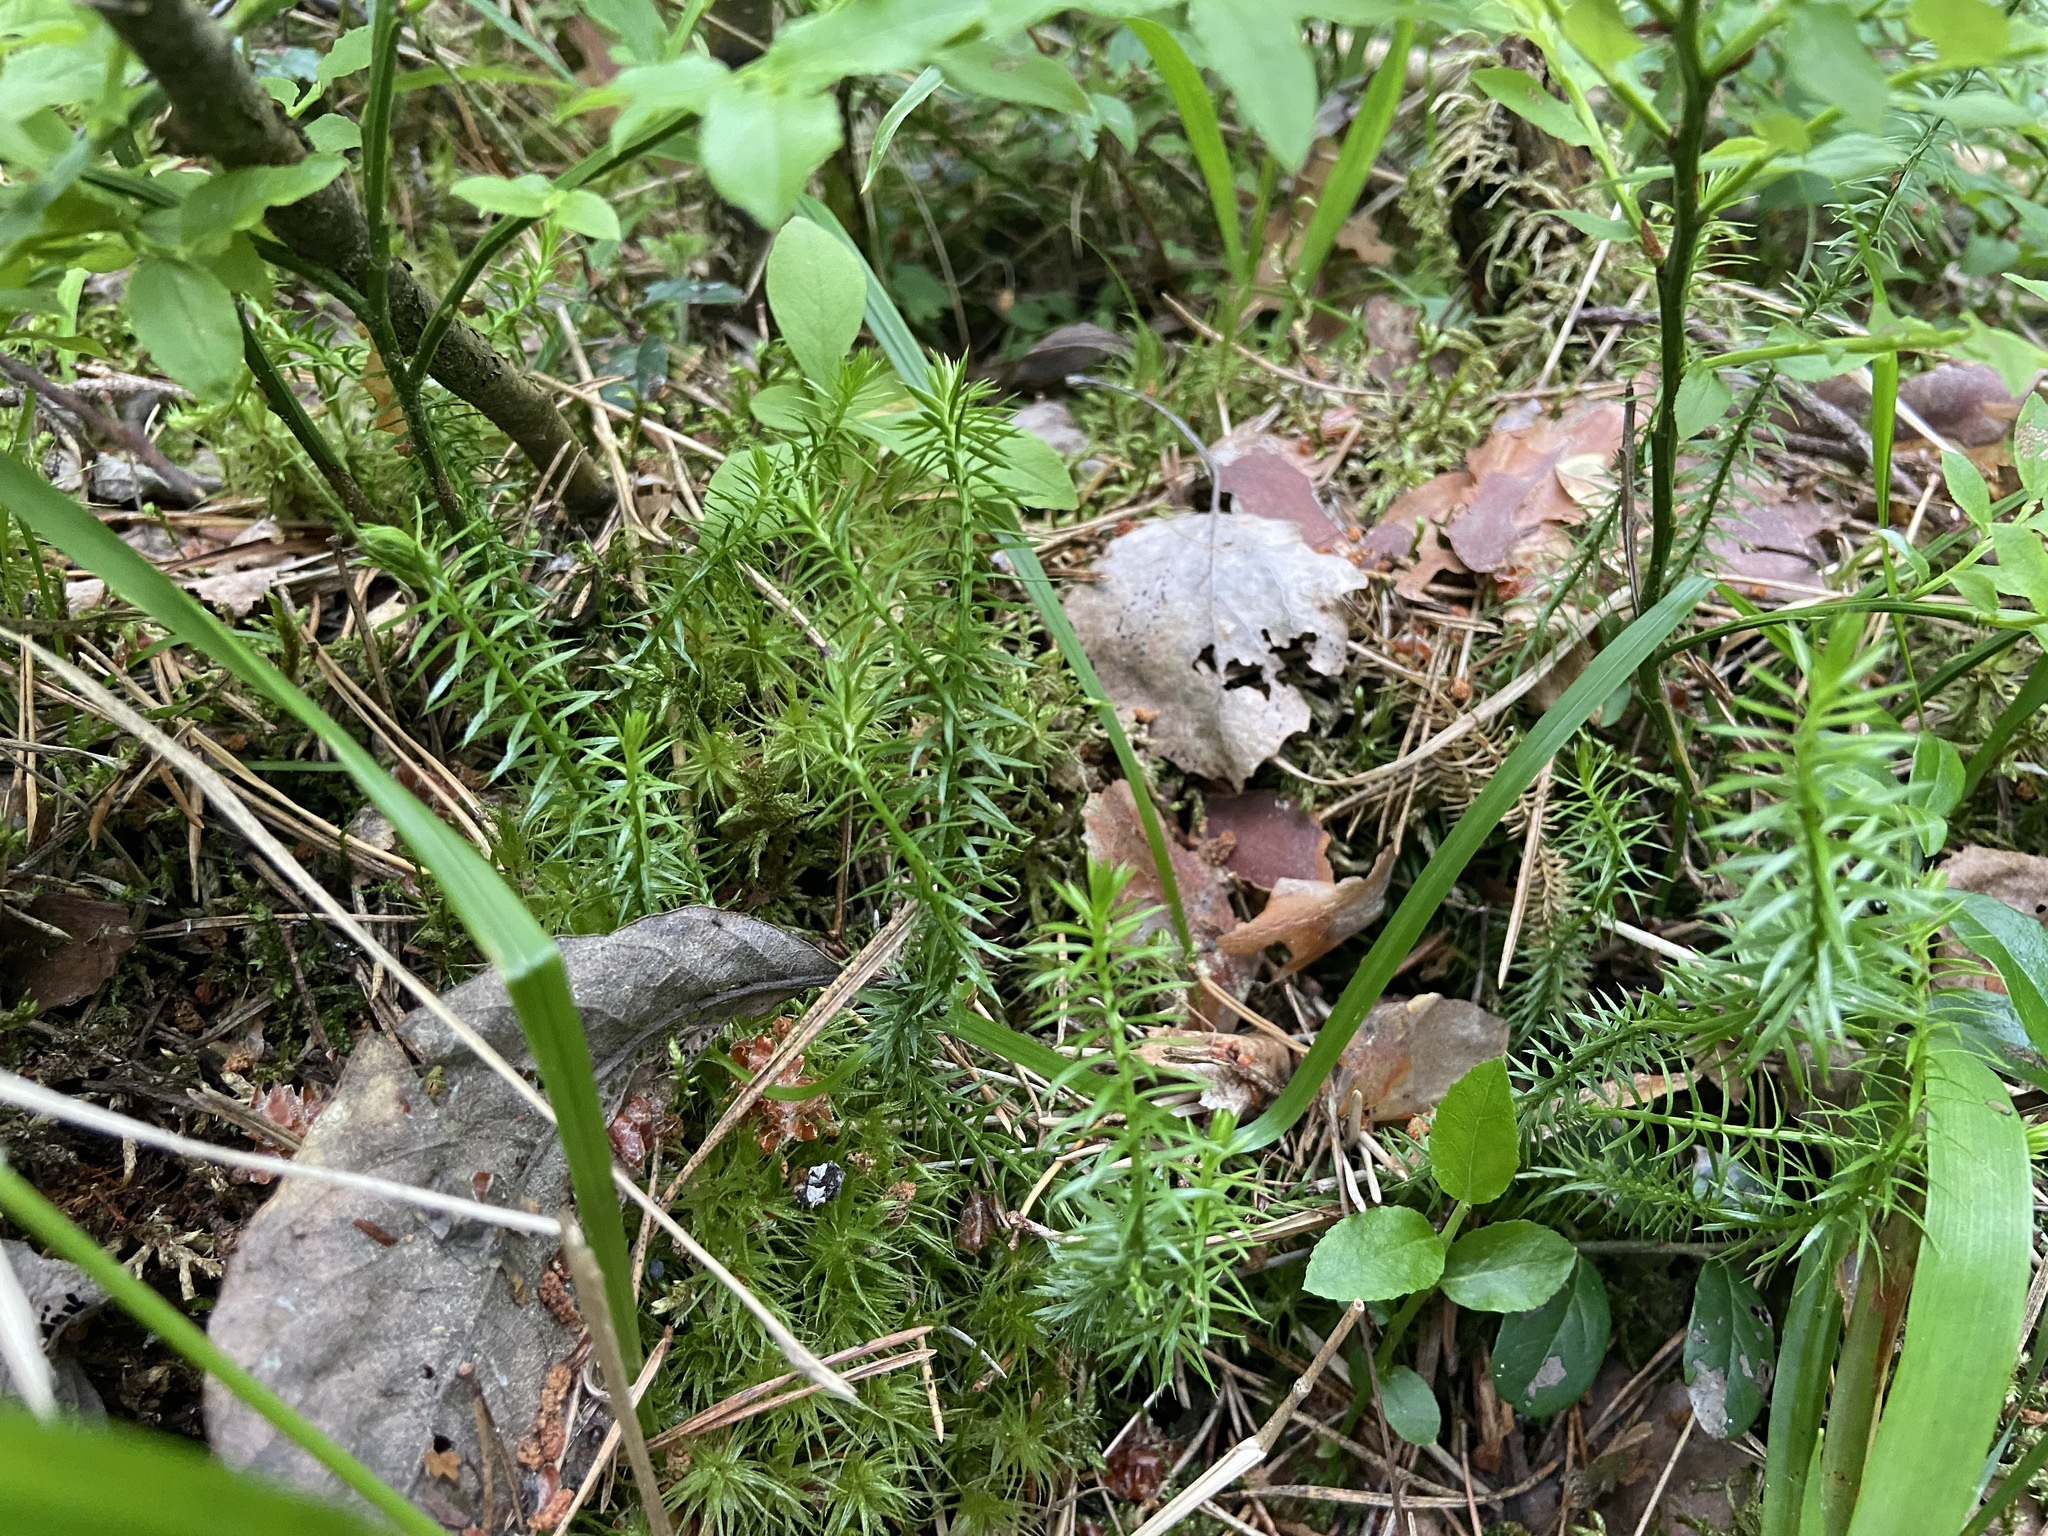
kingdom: Plantae
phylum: Tracheophyta
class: Lycopodiopsida
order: Lycopodiales
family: Lycopodiaceae
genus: Spinulum
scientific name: Spinulum annotinum
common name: Interrupted club-moss
